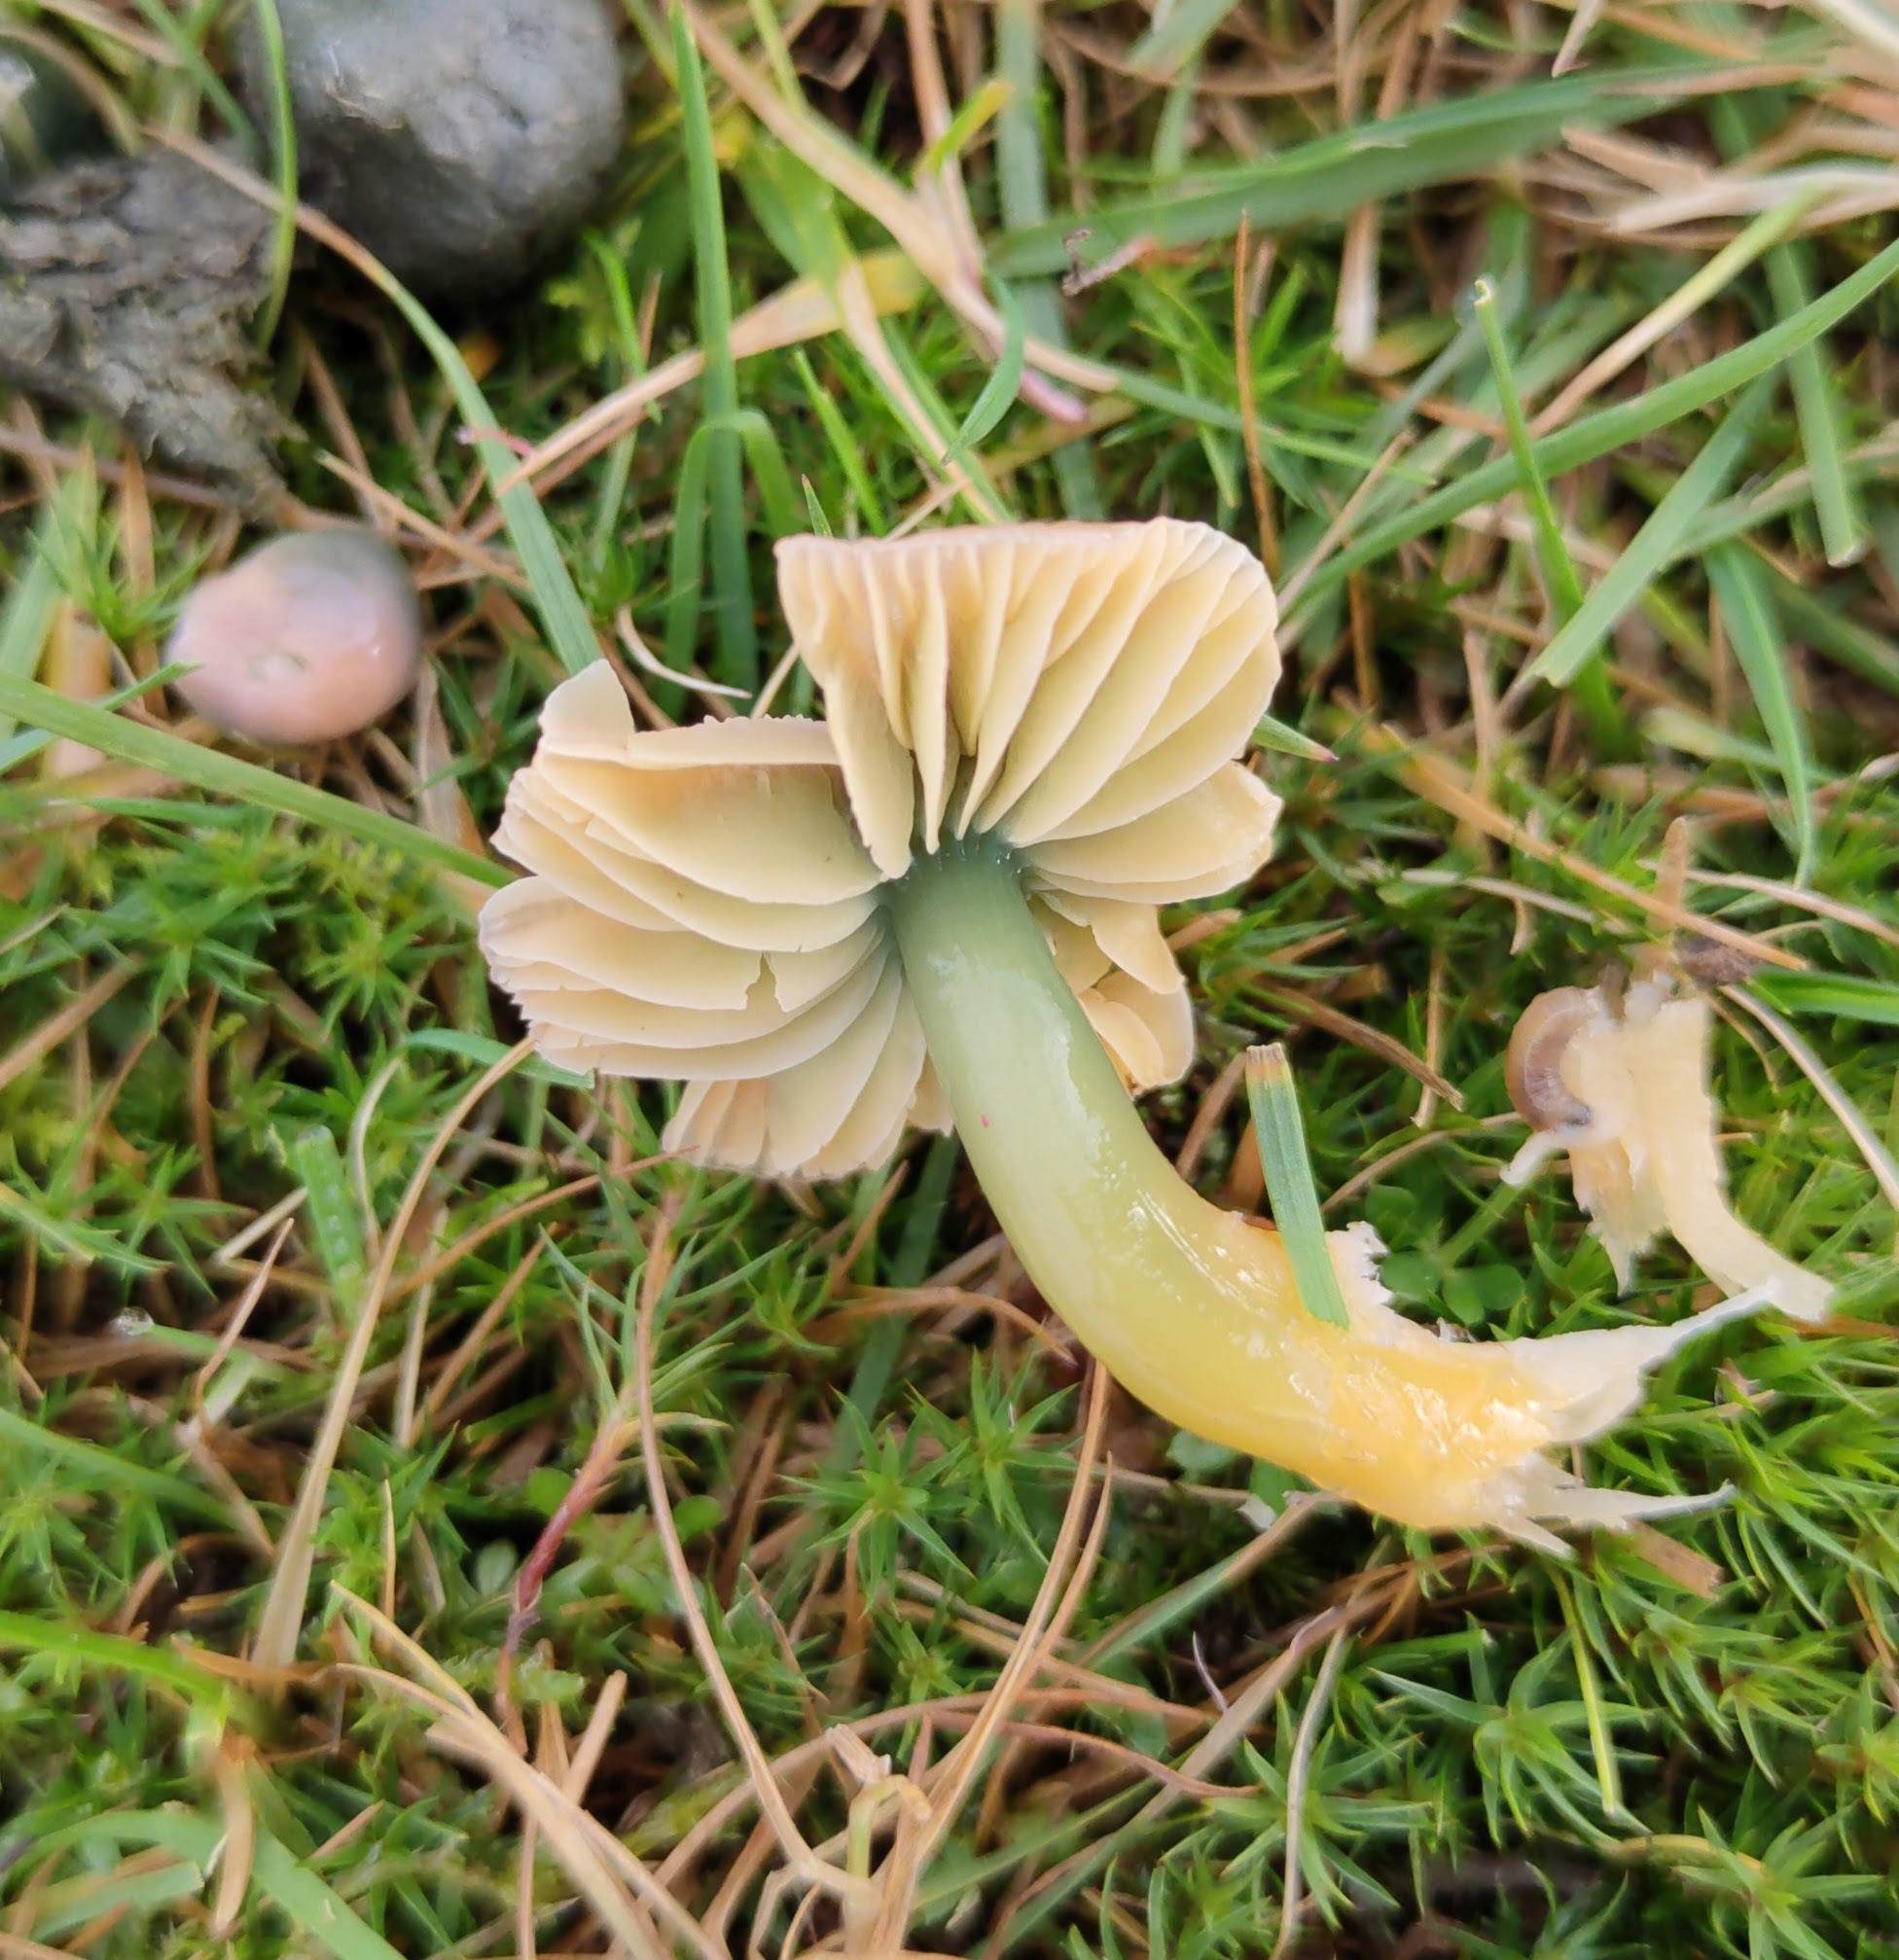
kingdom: Fungi
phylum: Basidiomycota
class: Agaricomycetes
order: Agaricales
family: Hygrophoraceae
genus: Gliophorus
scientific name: Gliophorus psittacinus
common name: Parrot wax-cap
